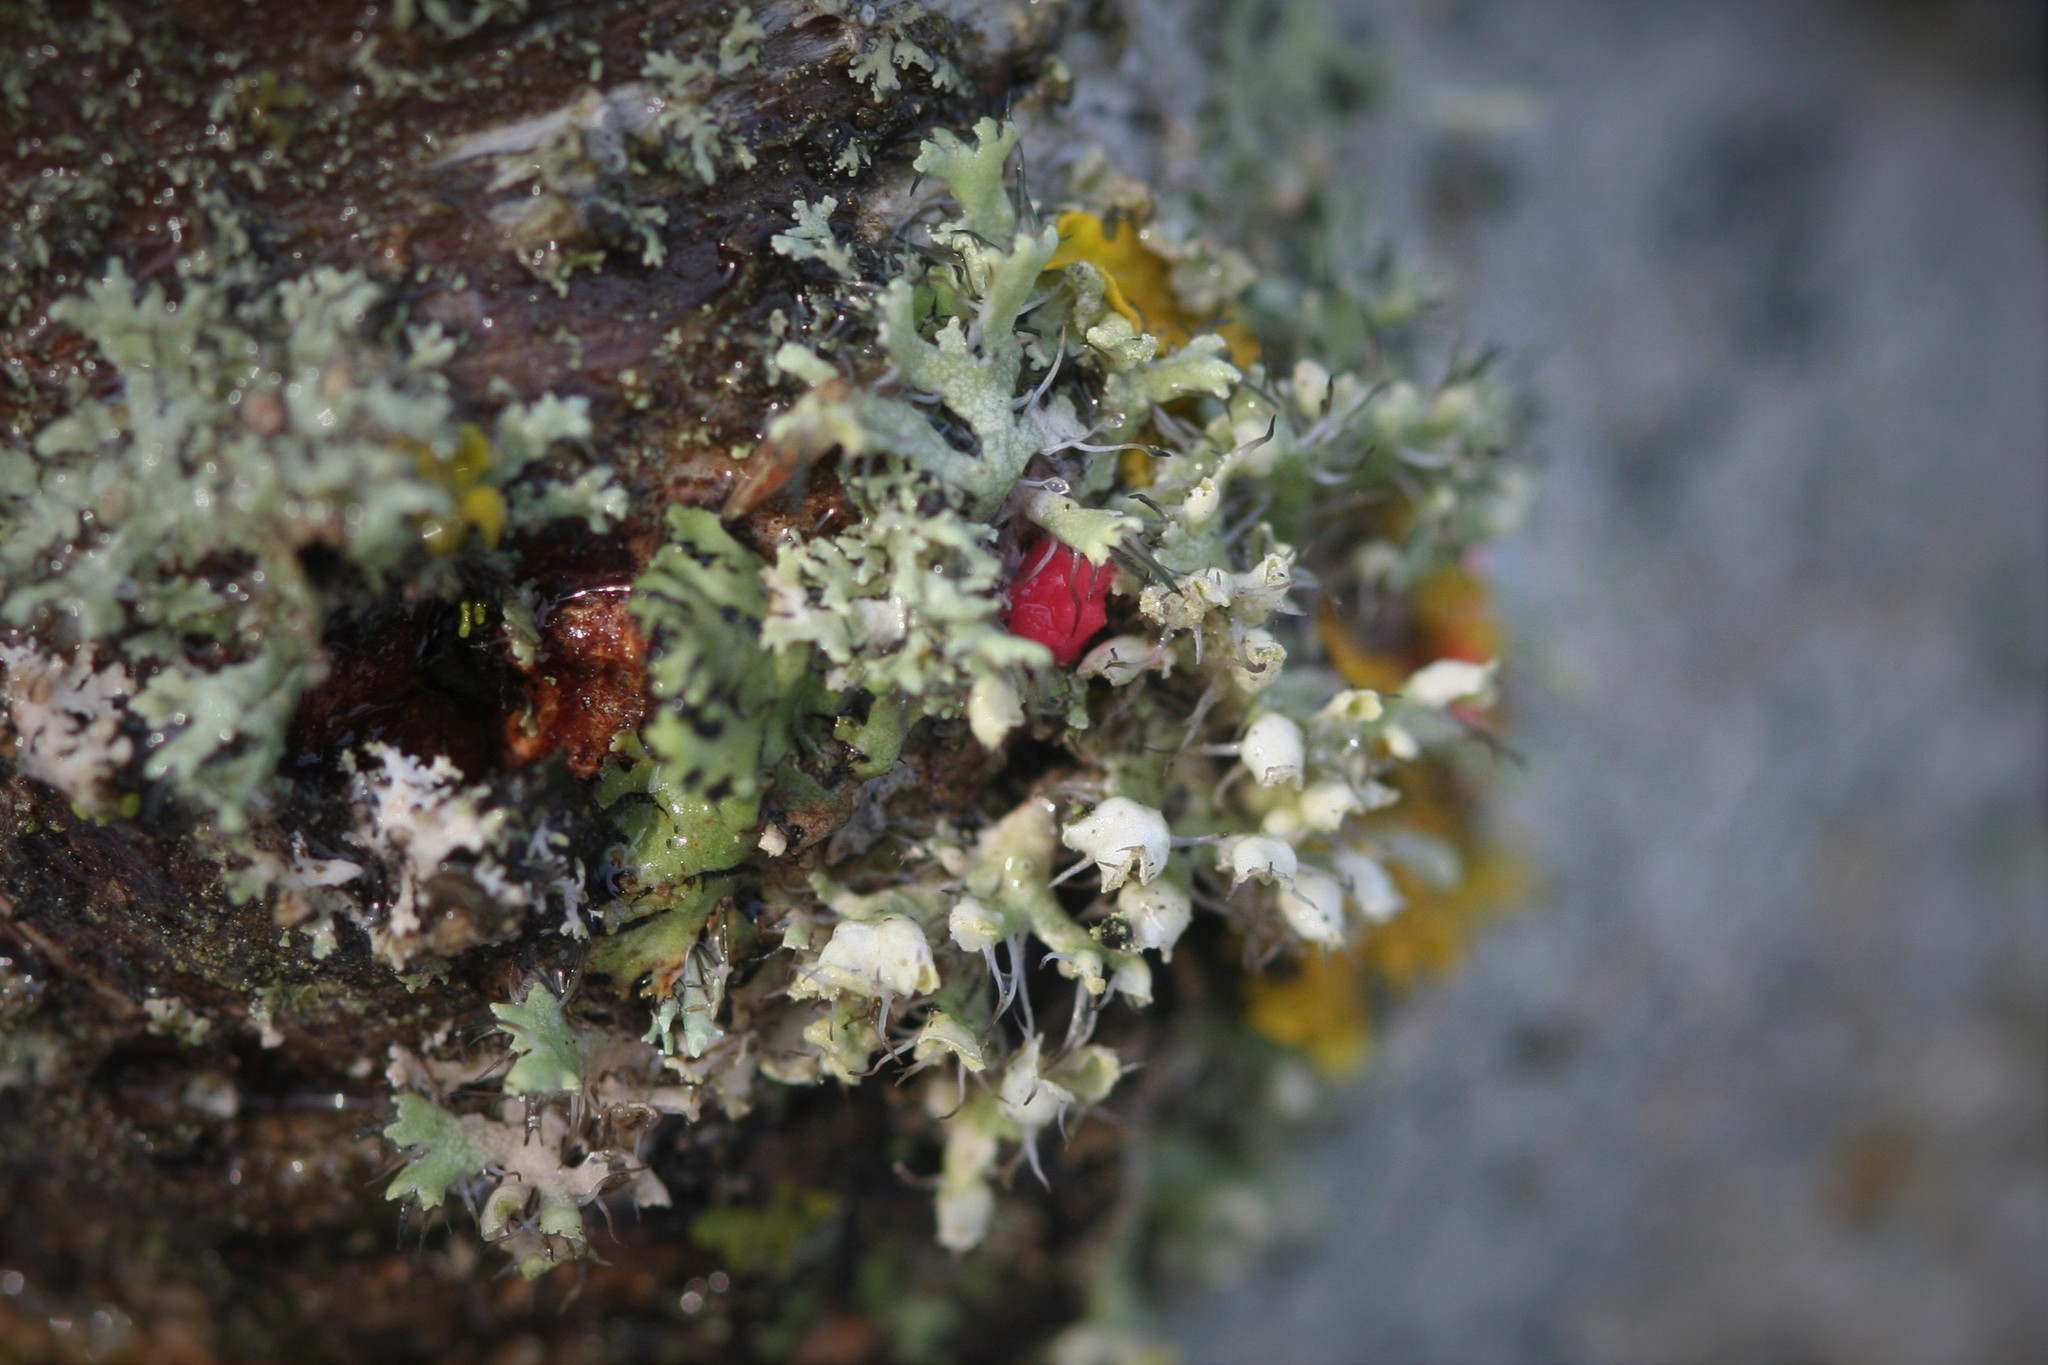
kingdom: Fungi
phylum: Ascomycota
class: Sordariomycetes
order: Hypocreales
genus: Illosporiopsis
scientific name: Illosporiopsis christiansenii
